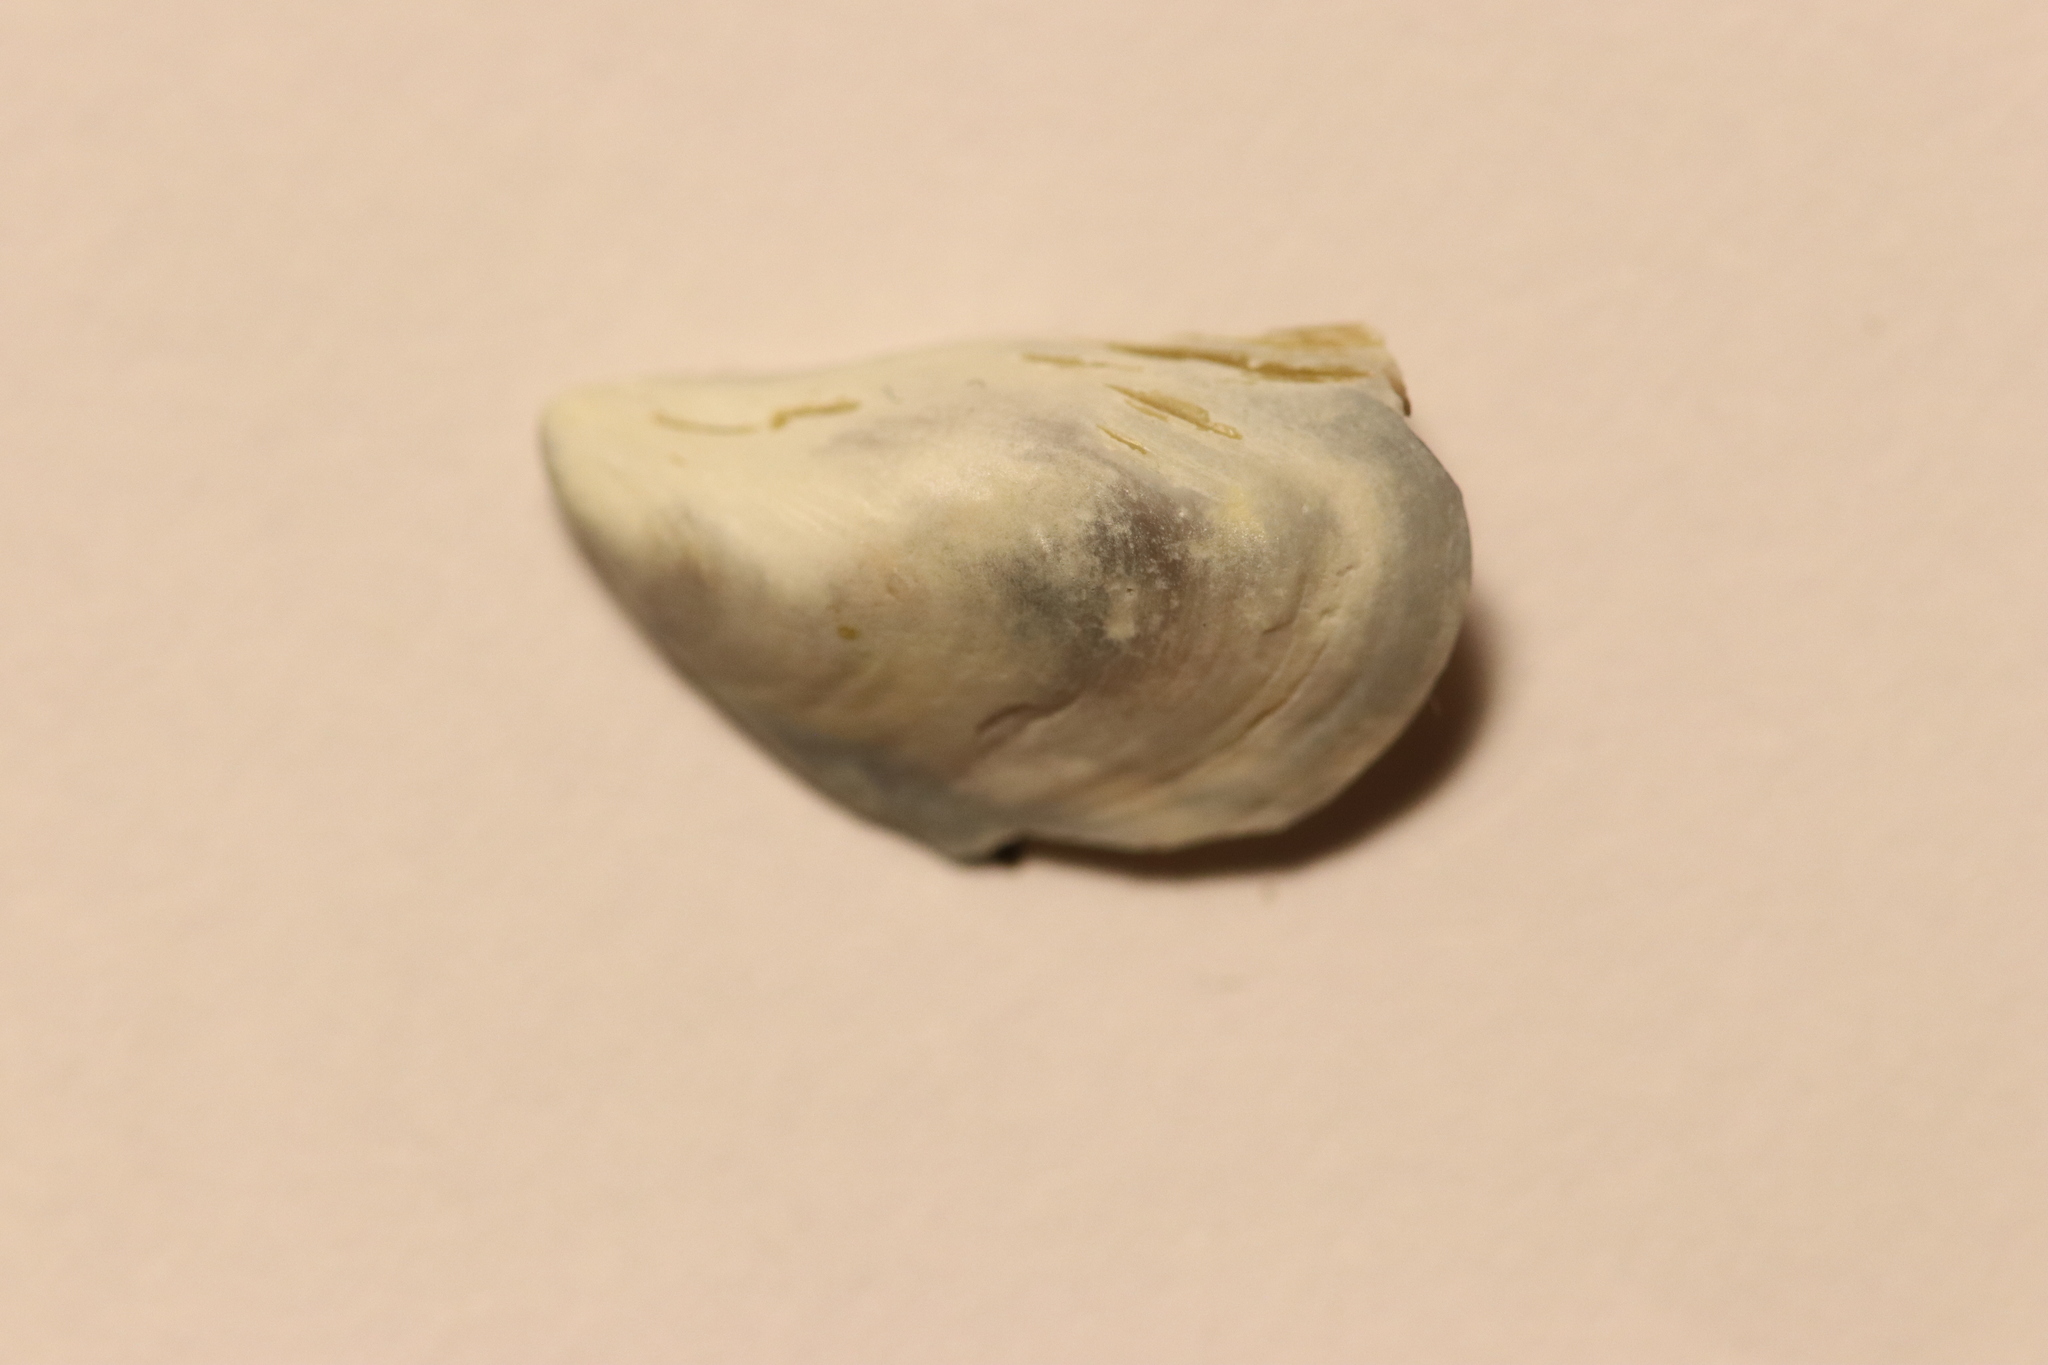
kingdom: Animalia
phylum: Mollusca
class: Bivalvia
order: Myida
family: Dreissenidae
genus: Dreissena
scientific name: Dreissena bugensis
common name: Quagga mussel
